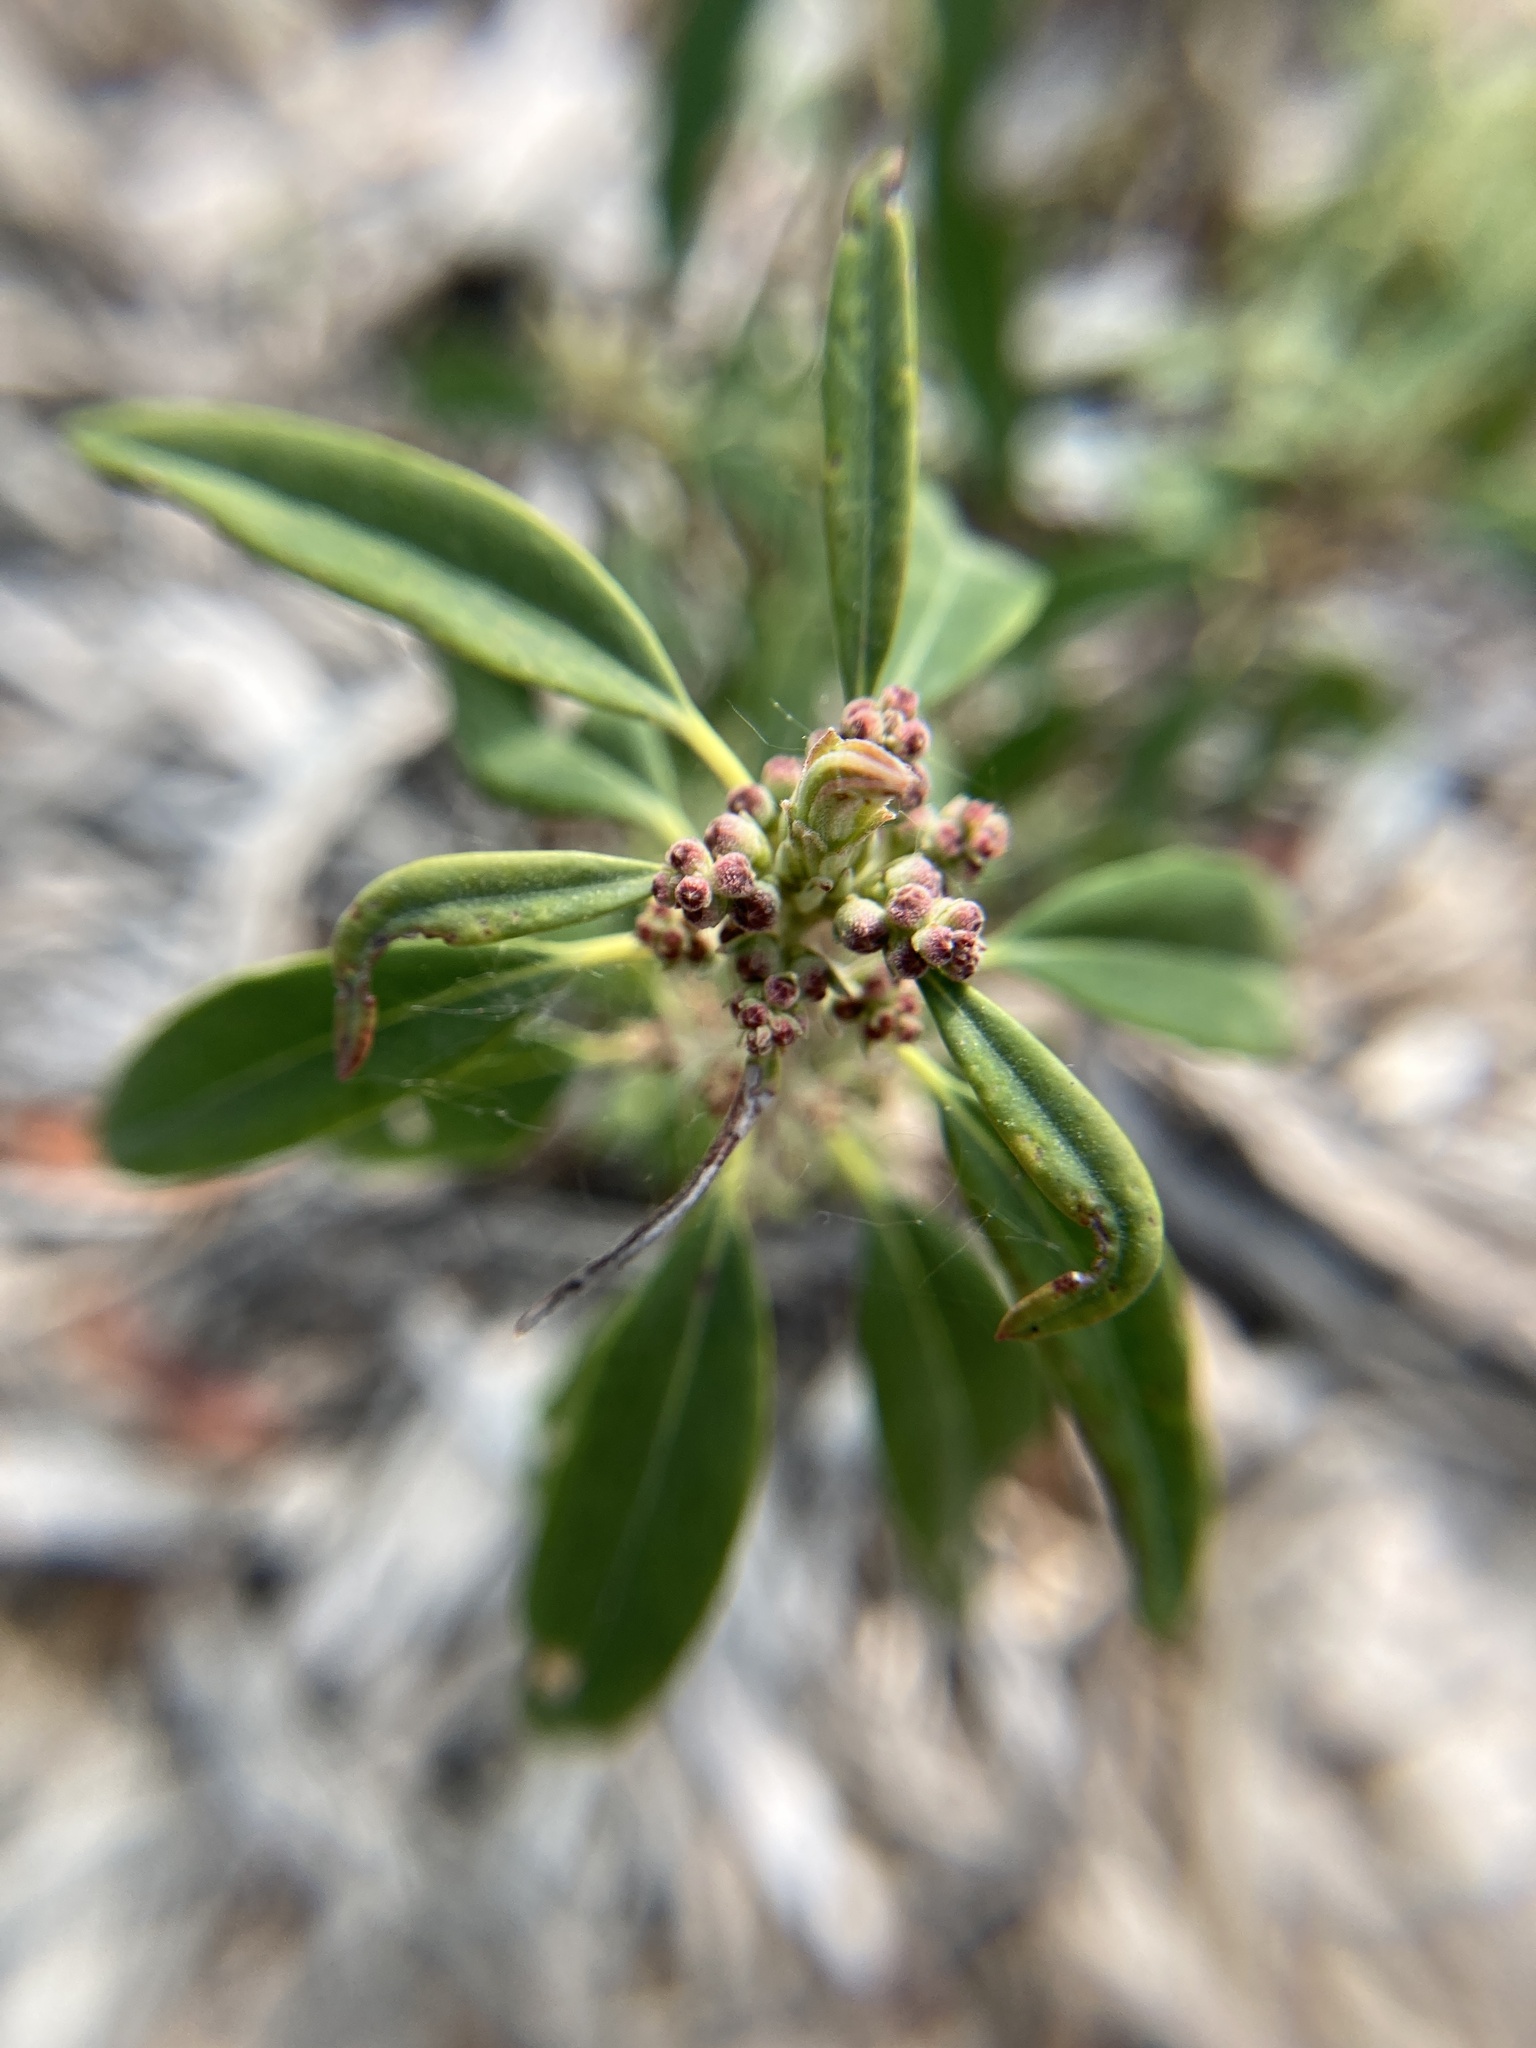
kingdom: Plantae
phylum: Tracheophyta
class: Magnoliopsida
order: Ericales
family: Ericaceae
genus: Kalmia
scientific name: Kalmia angustifolia
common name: Sheep-laurel
